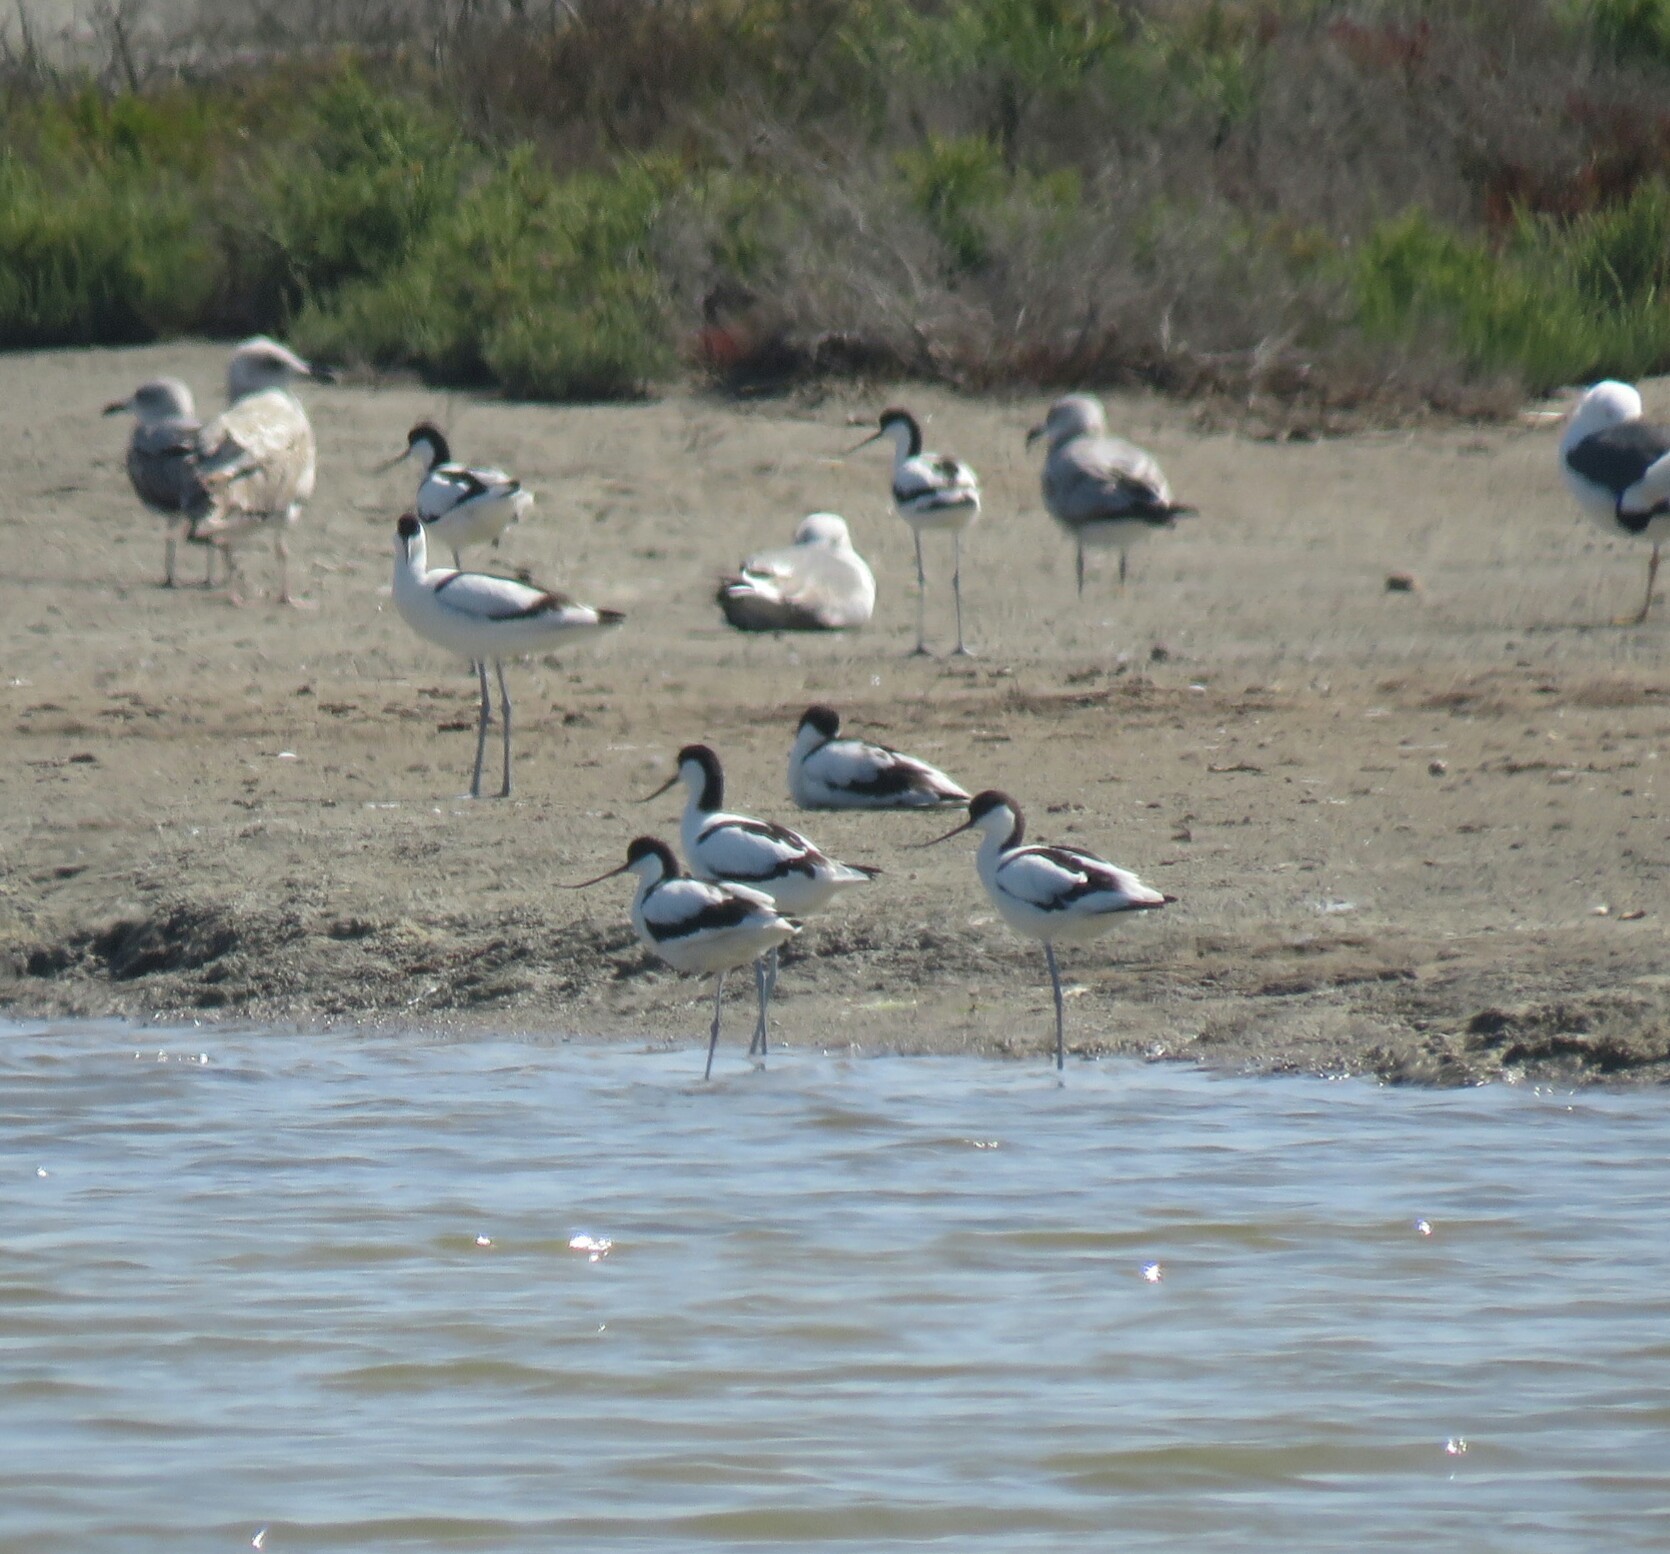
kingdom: Animalia
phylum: Chordata
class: Aves
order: Charadriiformes
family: Recurvirostridae
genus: Recurvirostra
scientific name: Recurvirostra avosetta
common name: Pied avocet
